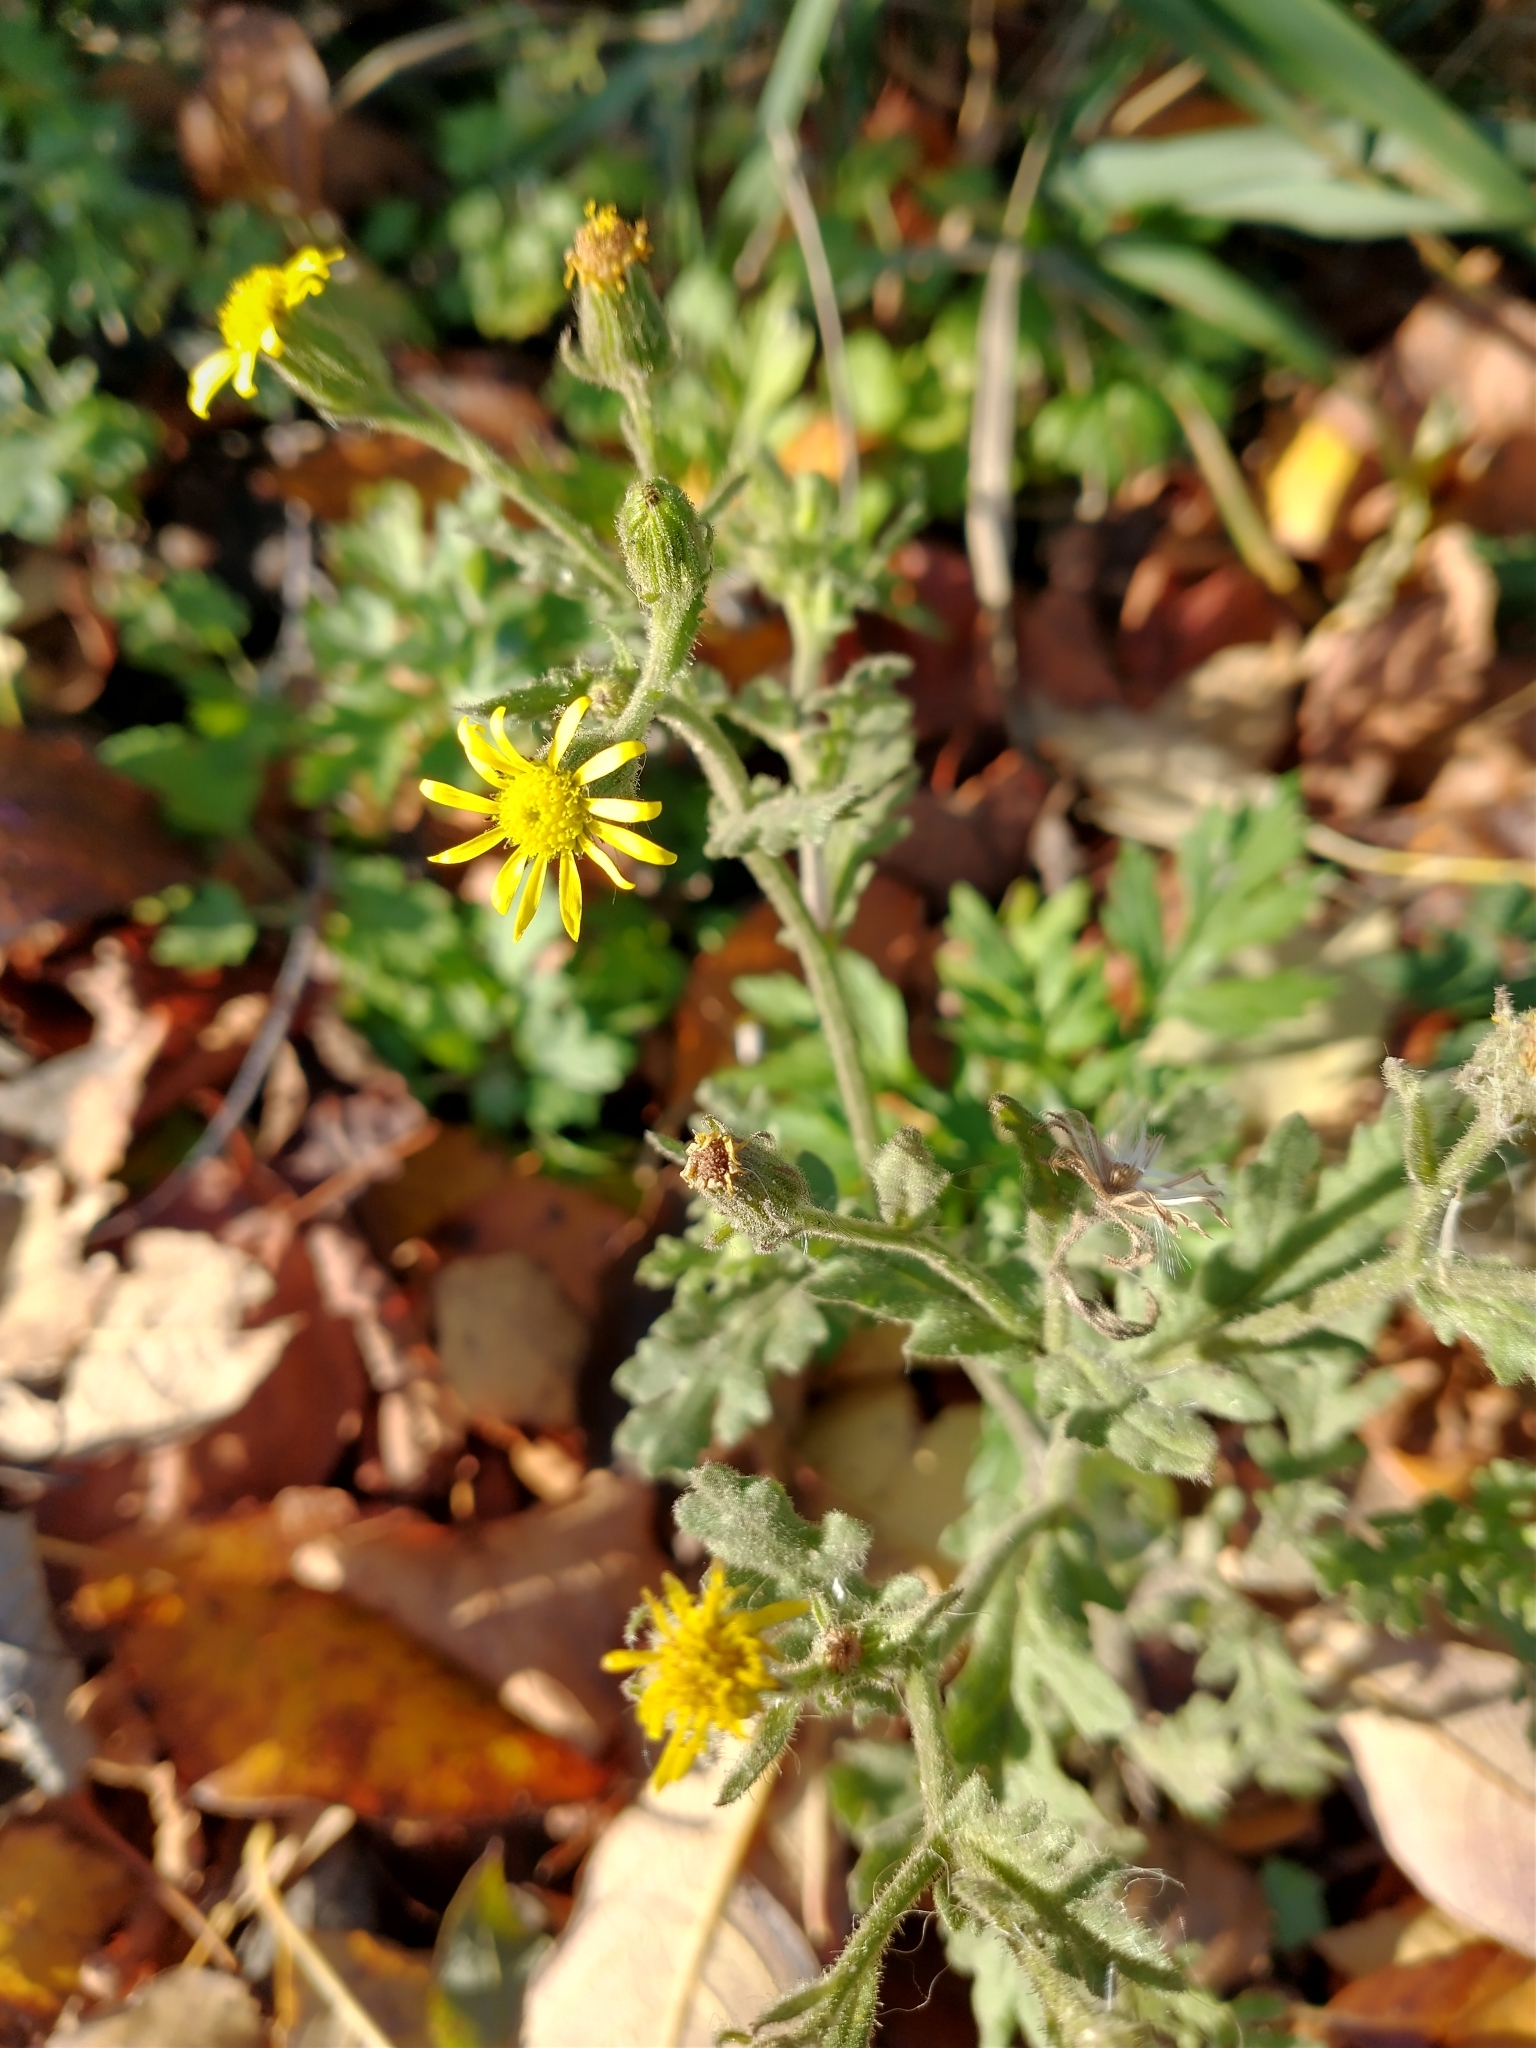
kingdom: Plantae
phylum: Tracheophyta
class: Magnoliopsida
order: Asterales
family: Asteraceae
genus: Senecio
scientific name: Senecio viscosus
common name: Sticky groundsel
